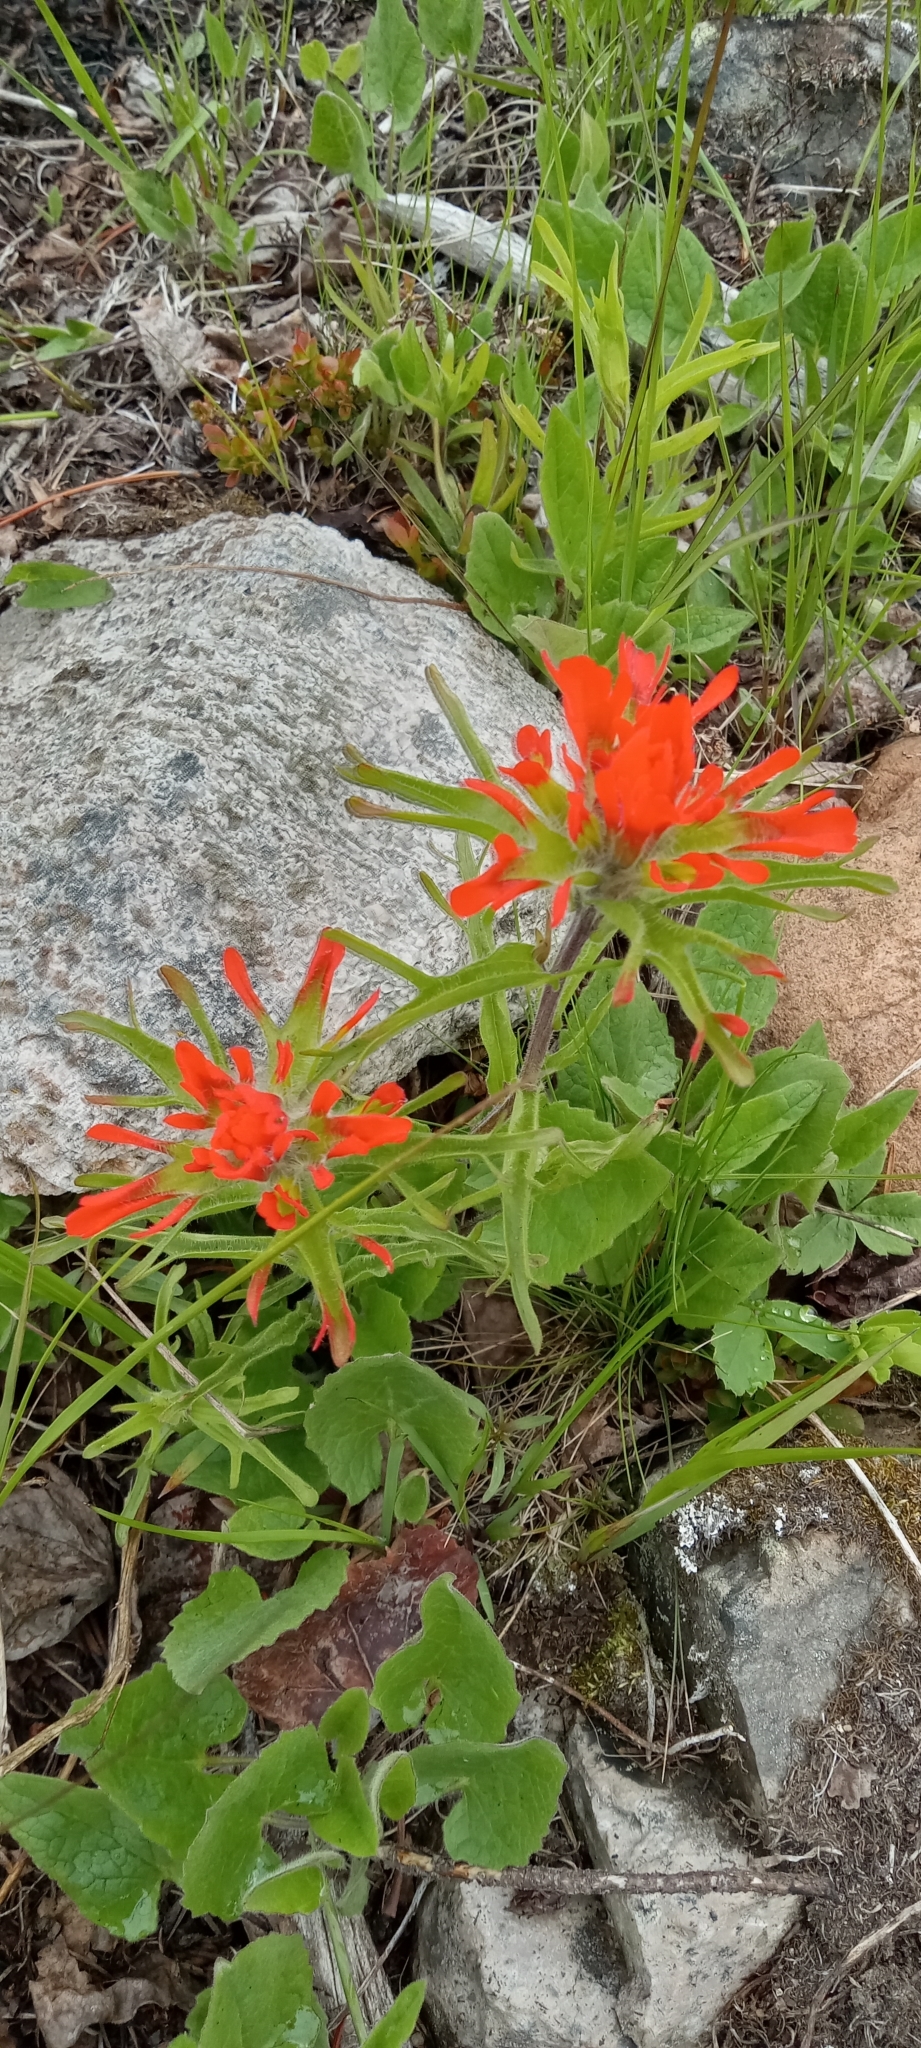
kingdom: Plantae
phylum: Tracheophyta
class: Magnoliopsida
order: Lamiales
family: Orobanchaceae
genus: Castilleja
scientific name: Castilleja hispida
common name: Bristly paintbrush
